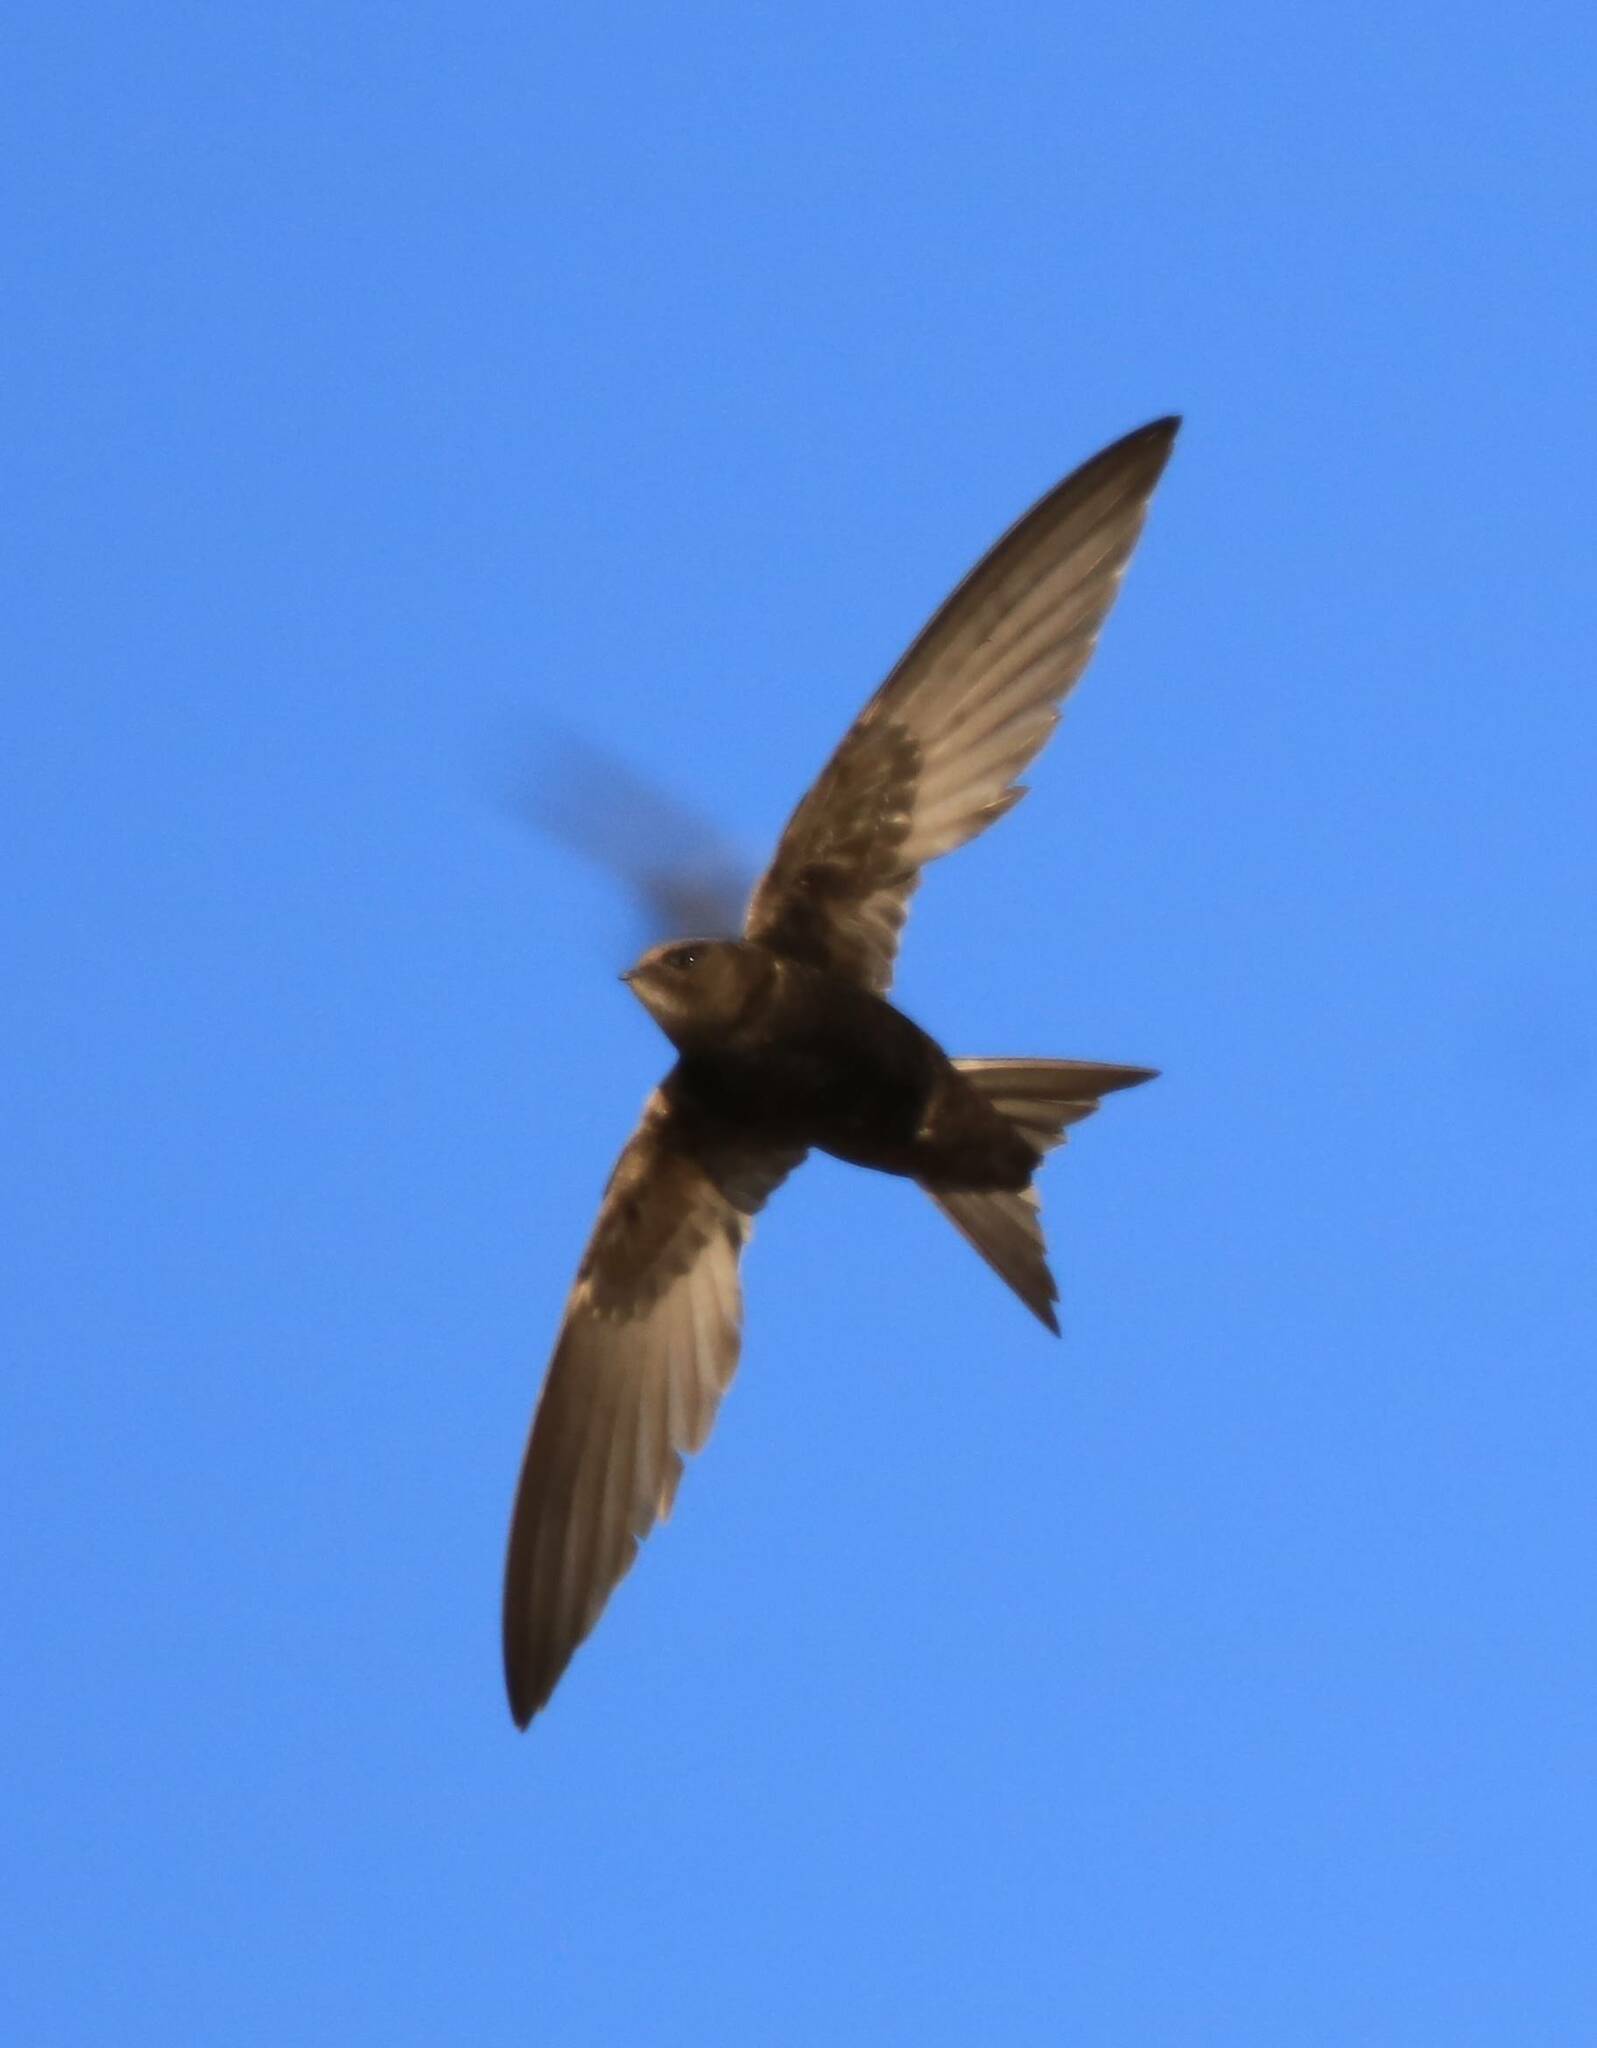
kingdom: Animalia
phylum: Chordata
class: Aves
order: Apodiformes
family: Apodidae
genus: Apus
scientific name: Apus apus
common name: Common swift
